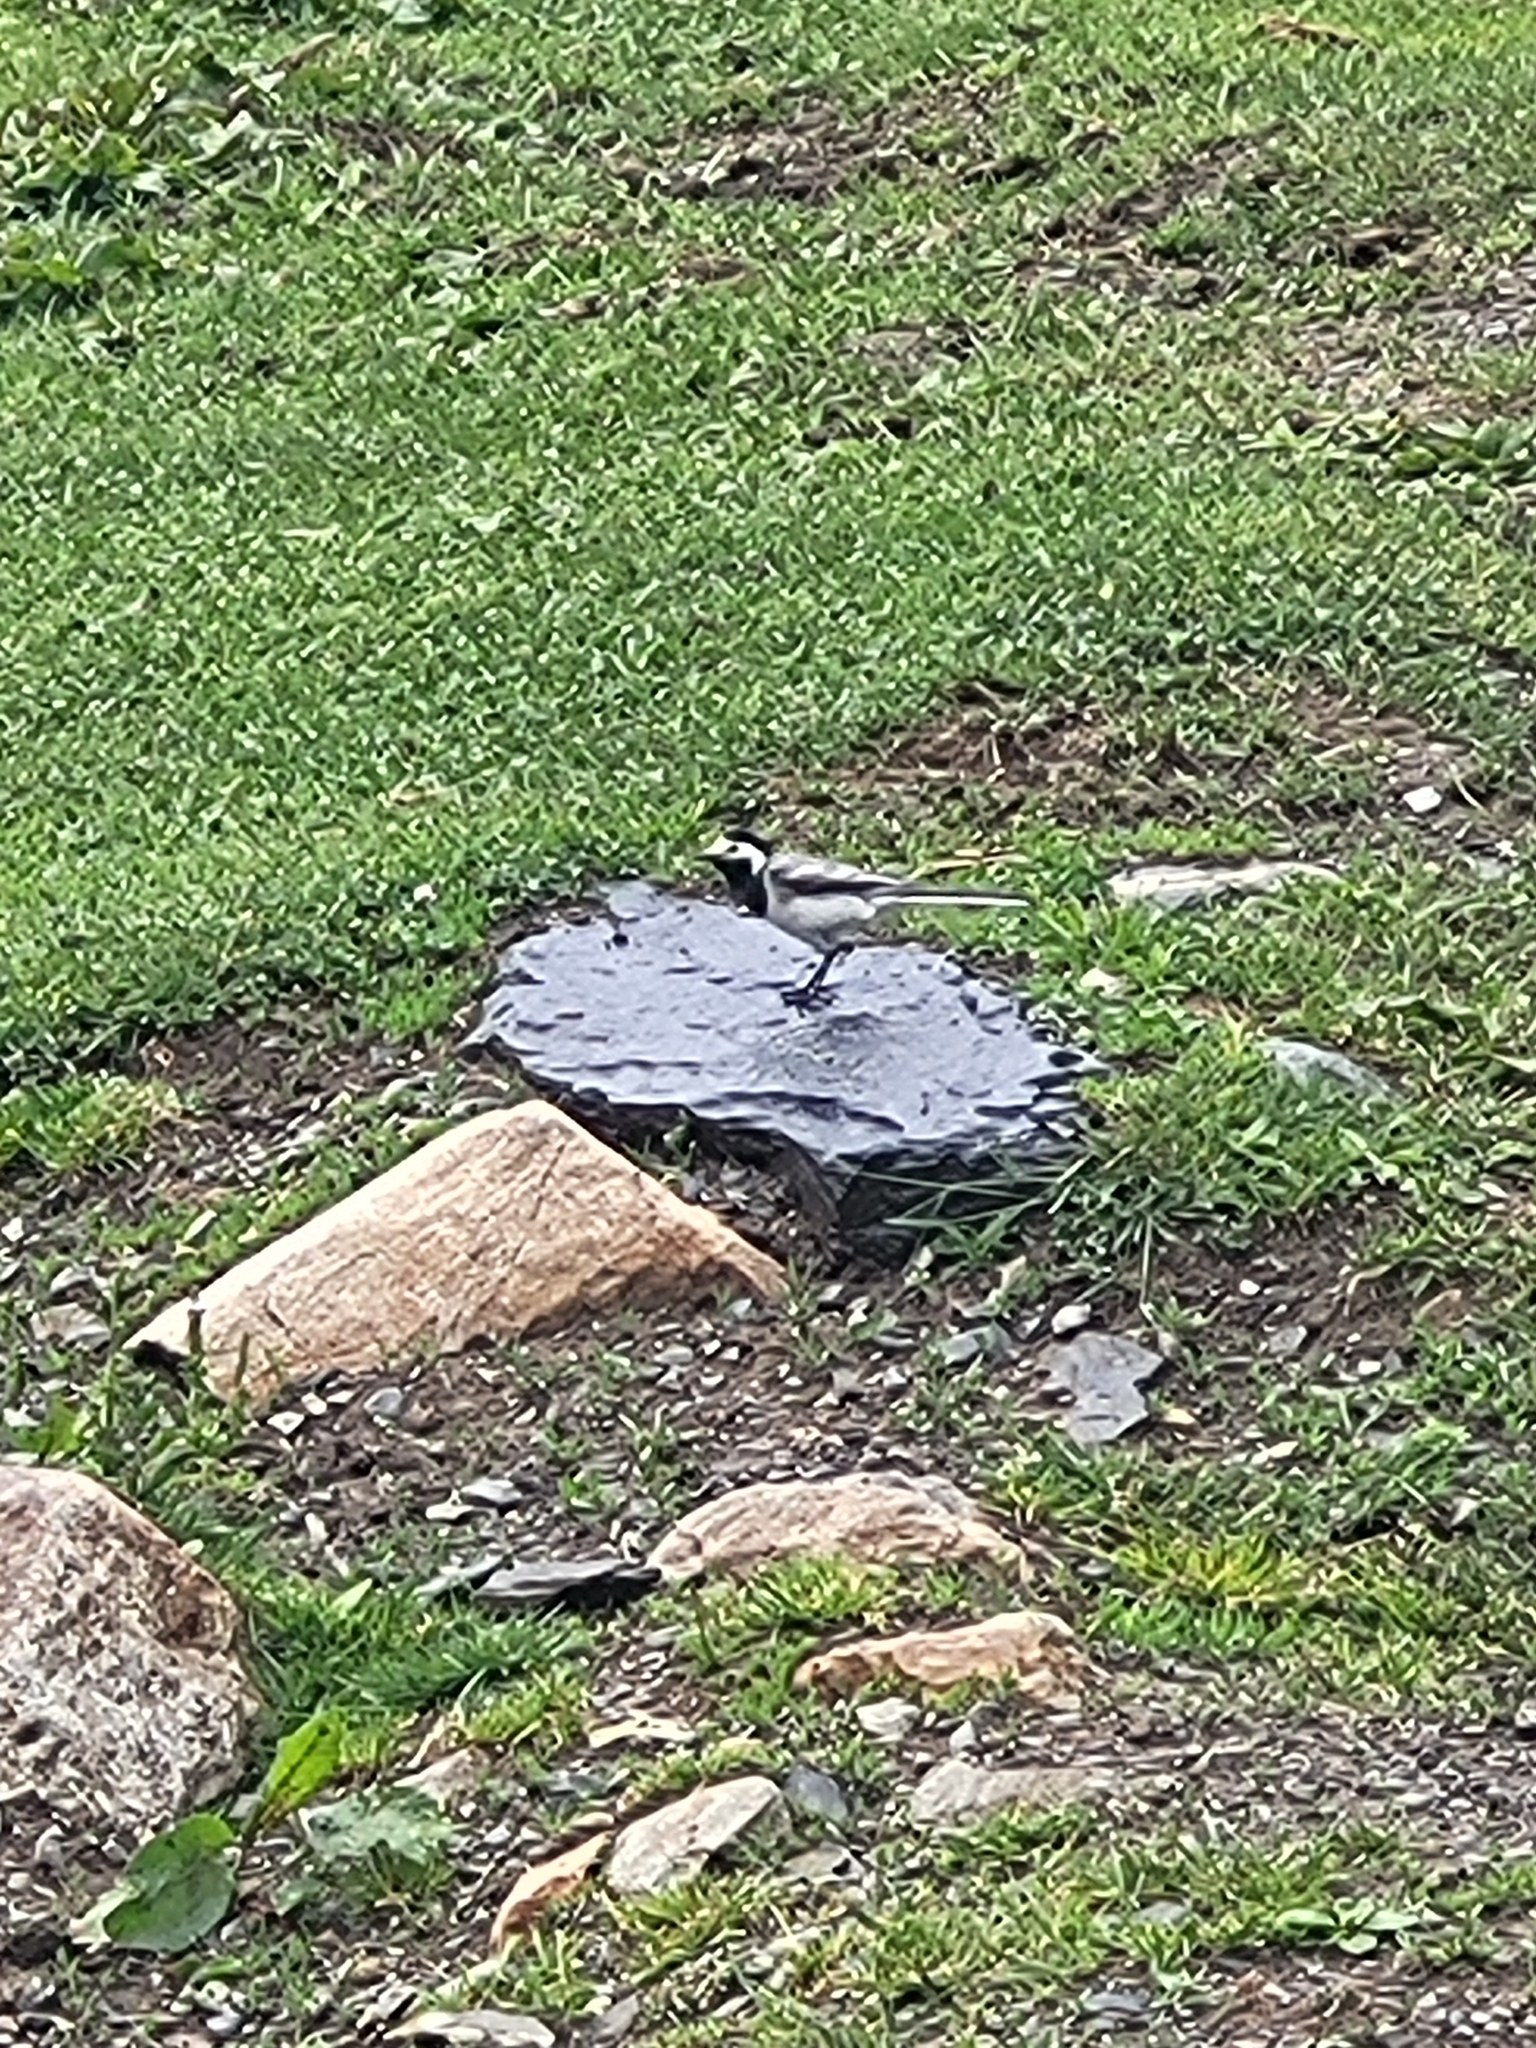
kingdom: Animalia
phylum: Chordata
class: Aves
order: Passeriformes
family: Motacillidae
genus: Motacilla
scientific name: Motacilla alba
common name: White wagtail
